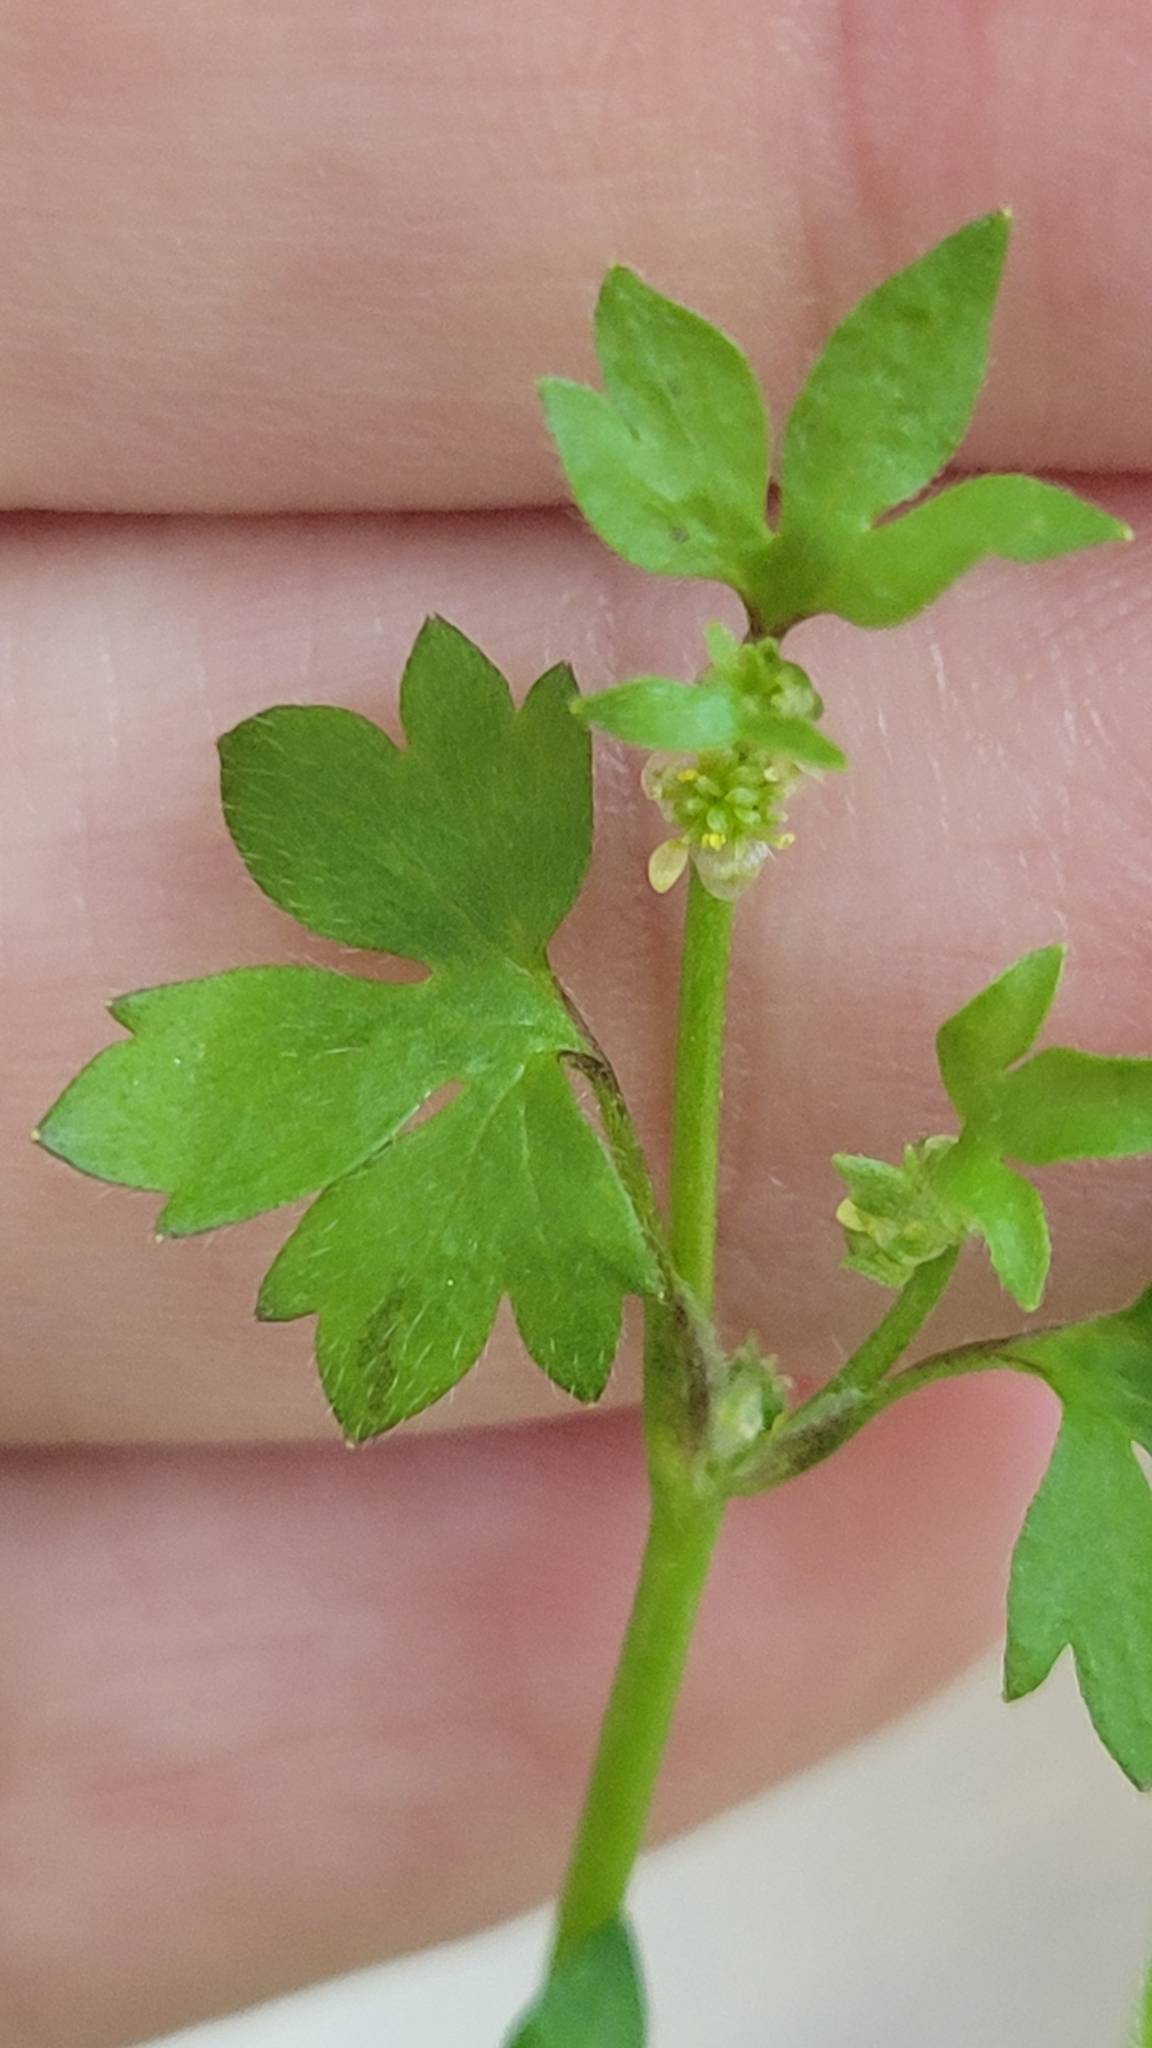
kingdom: Plantae
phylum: Tracheophyta
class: Magnoliopsida
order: Ranunculales
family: Ranunculaceae
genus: Ranunculus
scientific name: Ranunculus platensis
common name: Prairie buttercup
